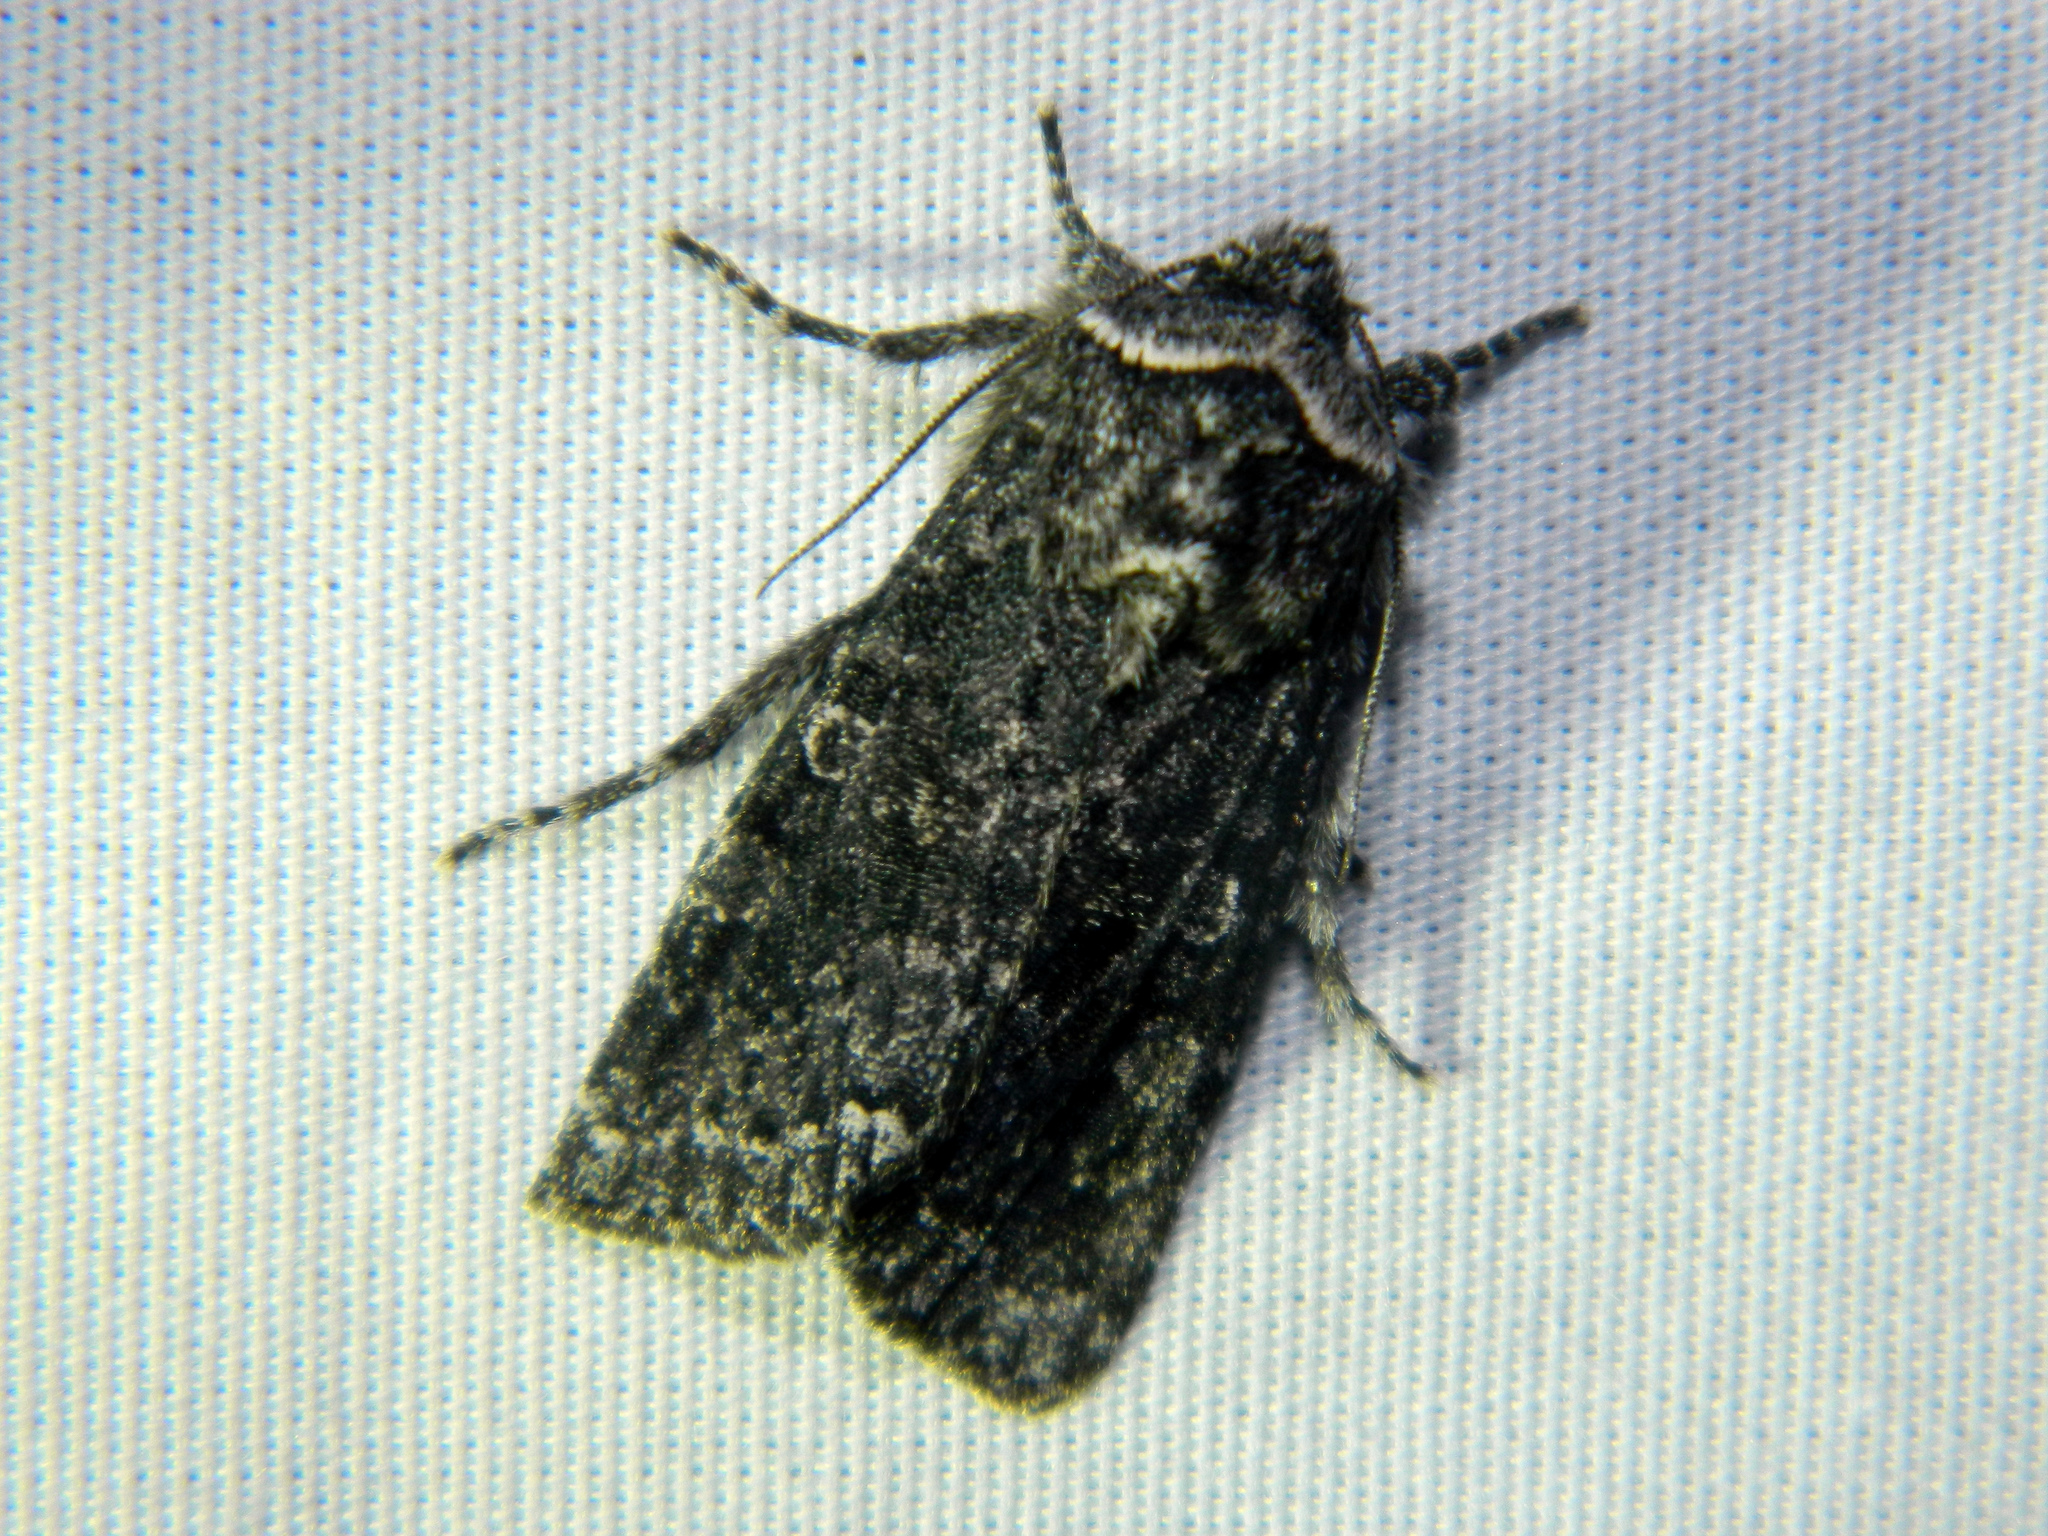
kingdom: Animalia
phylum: Arthropoda
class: Insecta
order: Lepidoptera
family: Noctuidae
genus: Egira
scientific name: Egira dolosa
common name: Lined black aspen cat.
